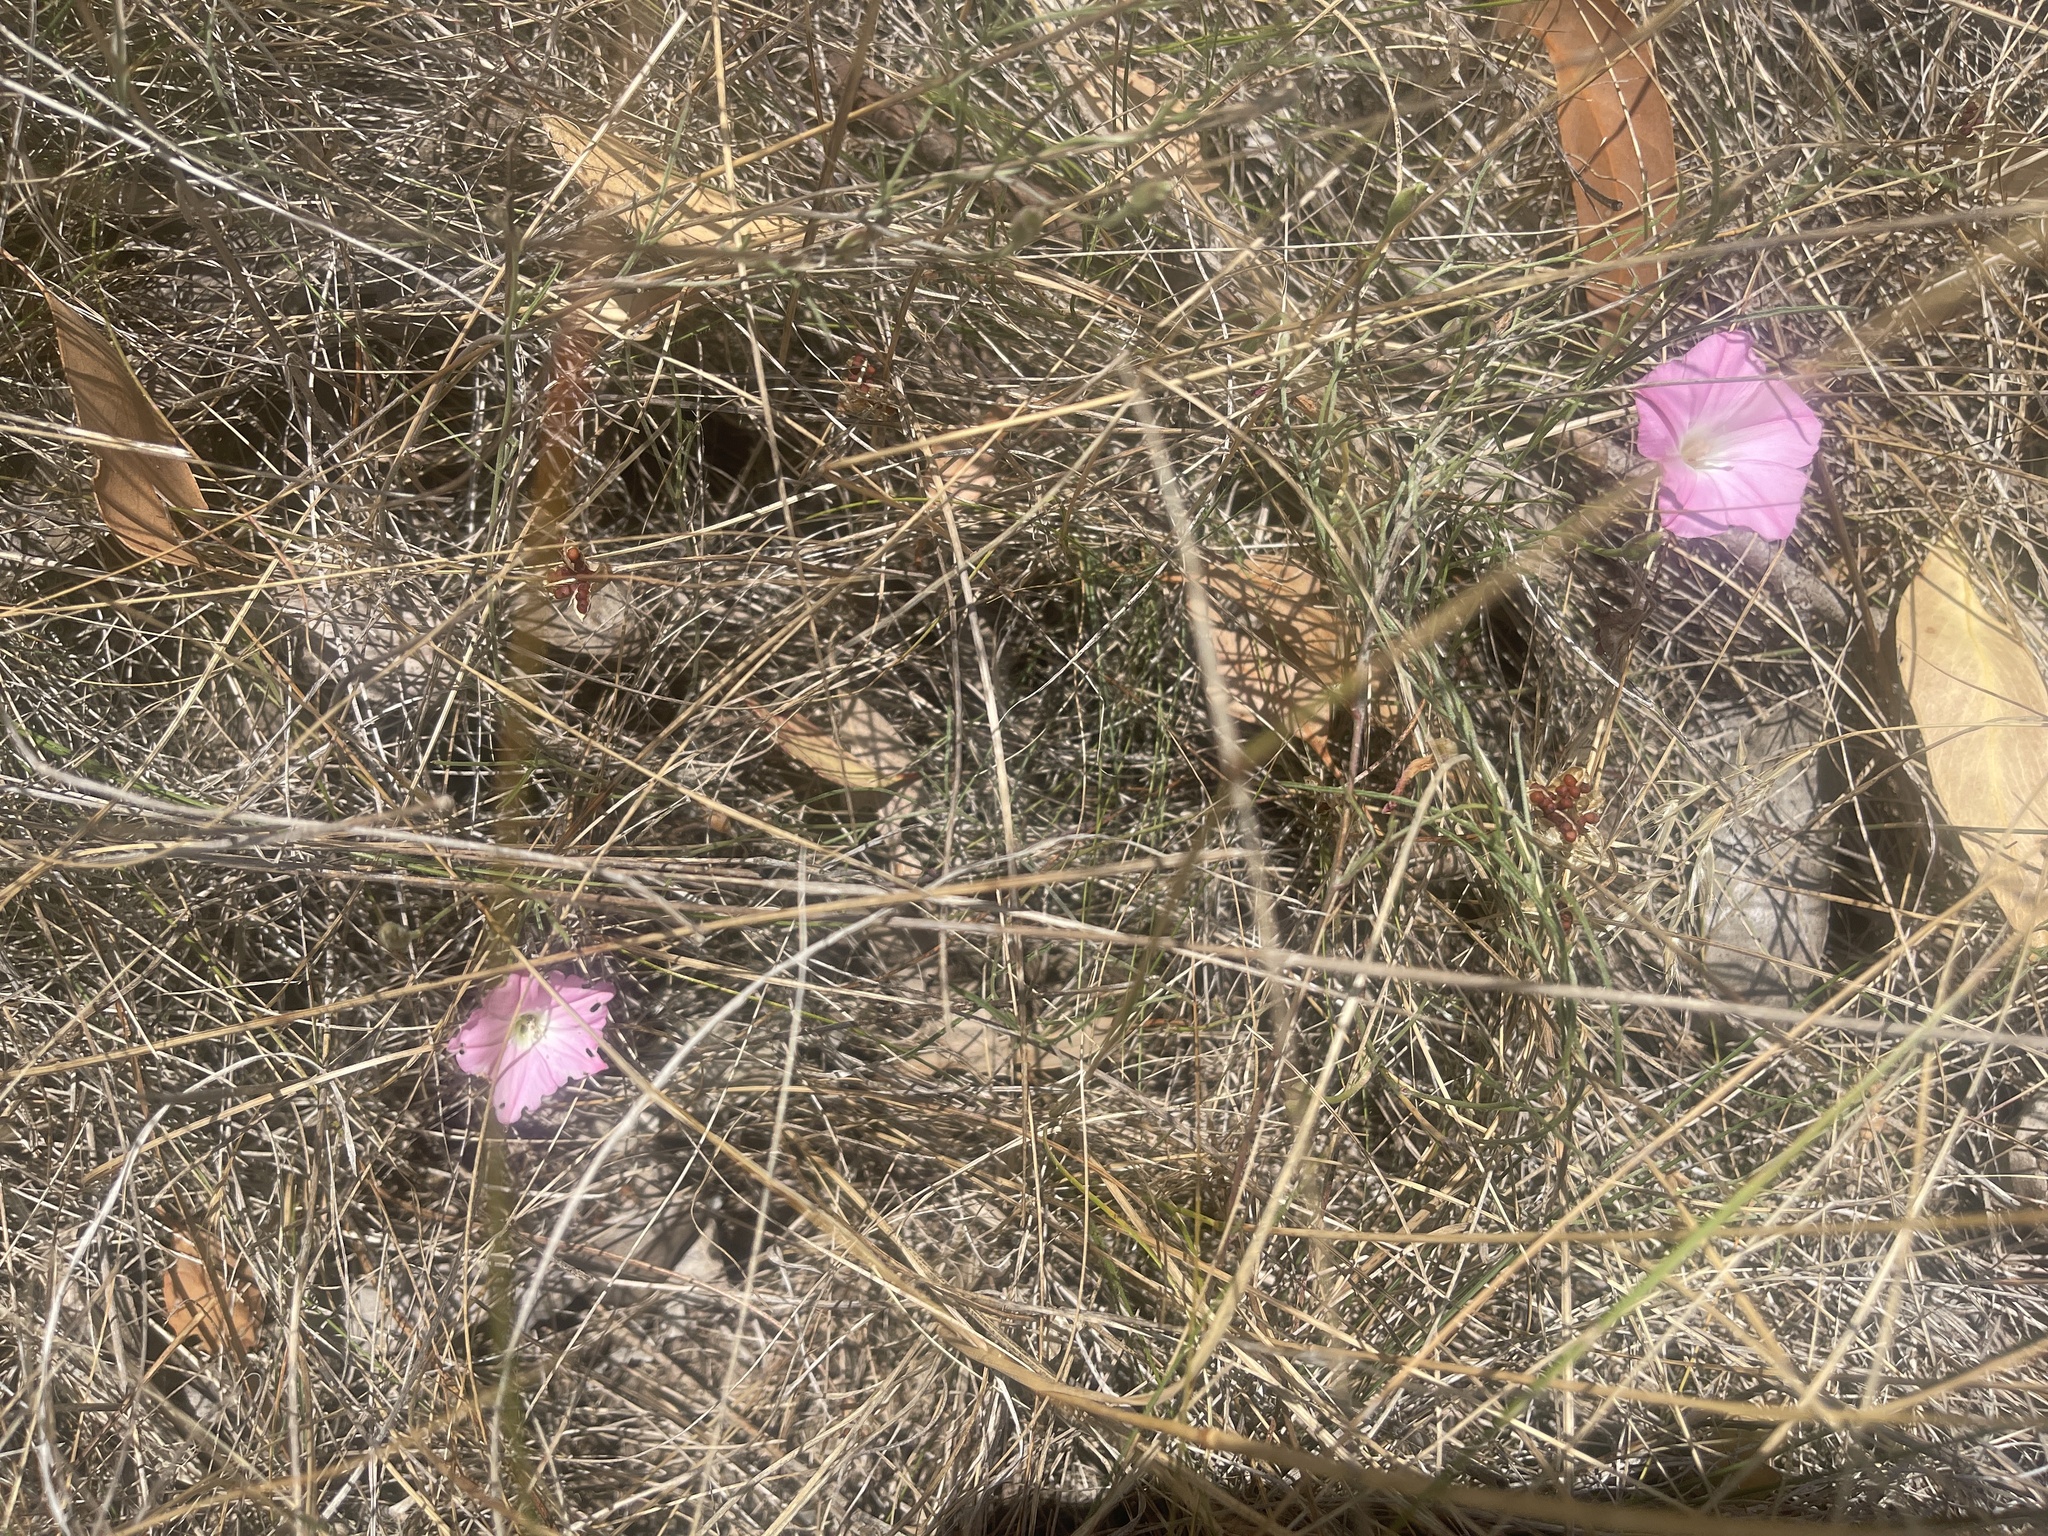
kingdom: Plantae
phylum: Tracheophyta
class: Magnoliopsida
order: Solanales
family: Convolvulaceae
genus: Convolvulus
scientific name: Convolvulus angustissimus
